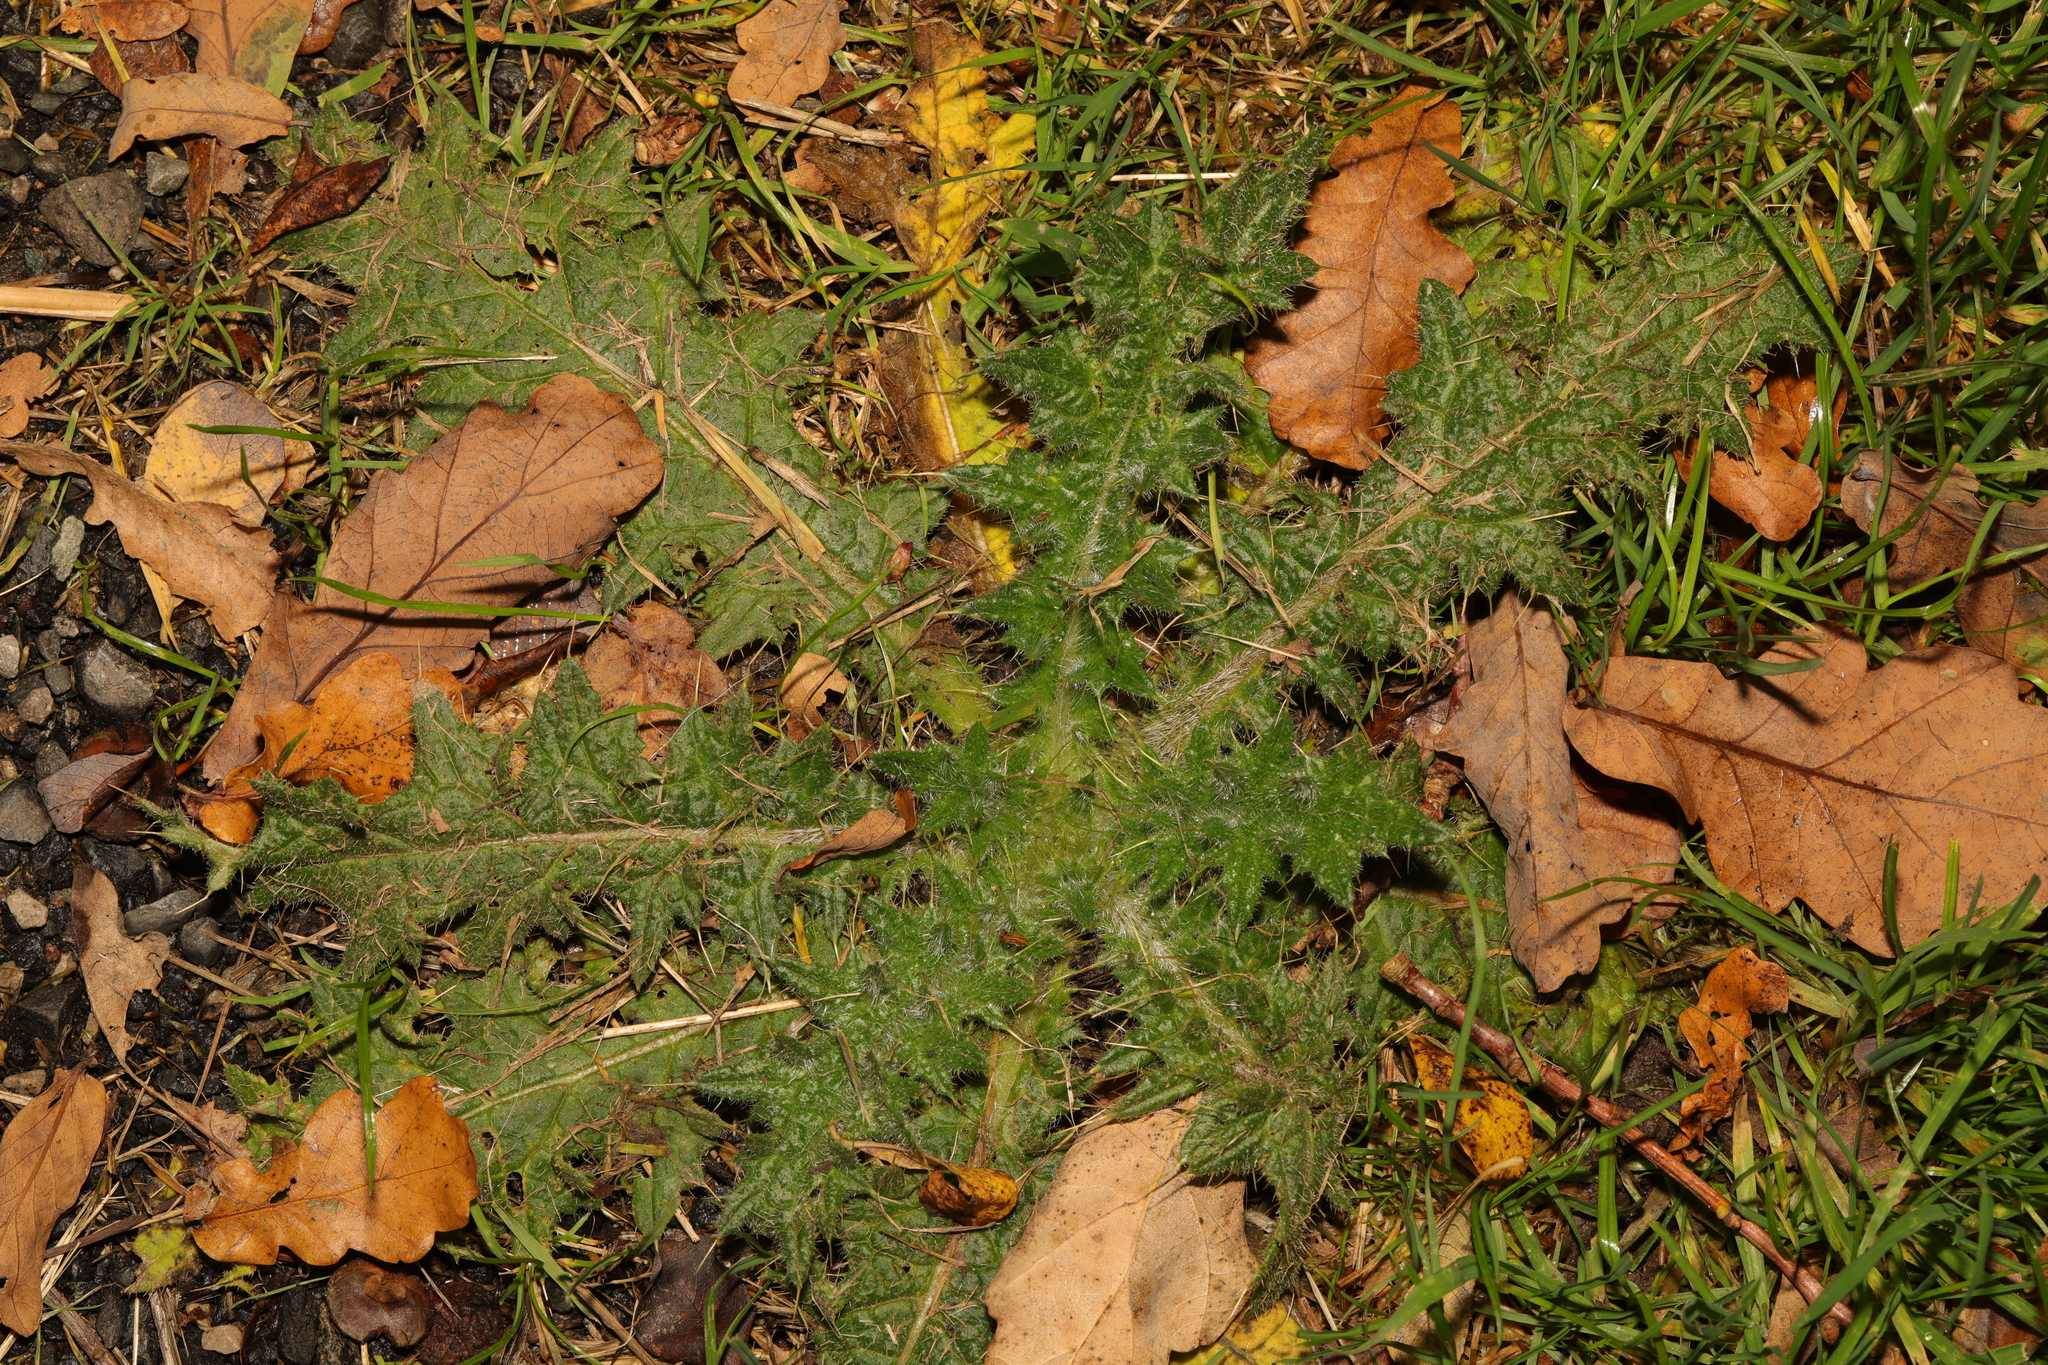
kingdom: Plantae
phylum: Tracheophyta
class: Magnoliopsida
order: Asterales
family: Asteraceae
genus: Cirsium
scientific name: Cirsium vulgare
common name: Bull thistle
